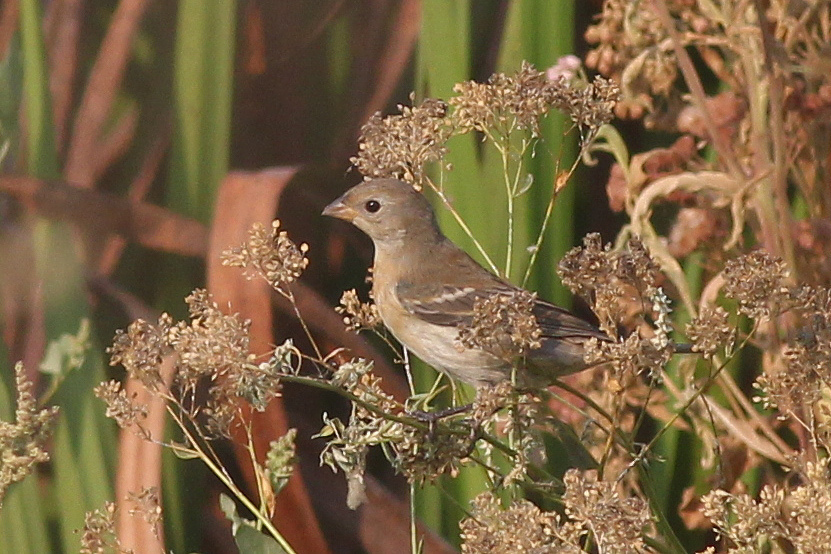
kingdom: Animalia
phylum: Chordata
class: Aves
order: Passeriformes
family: Cardinalidae
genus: Passerina
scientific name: Passerina amoena
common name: Lazuli bunting
